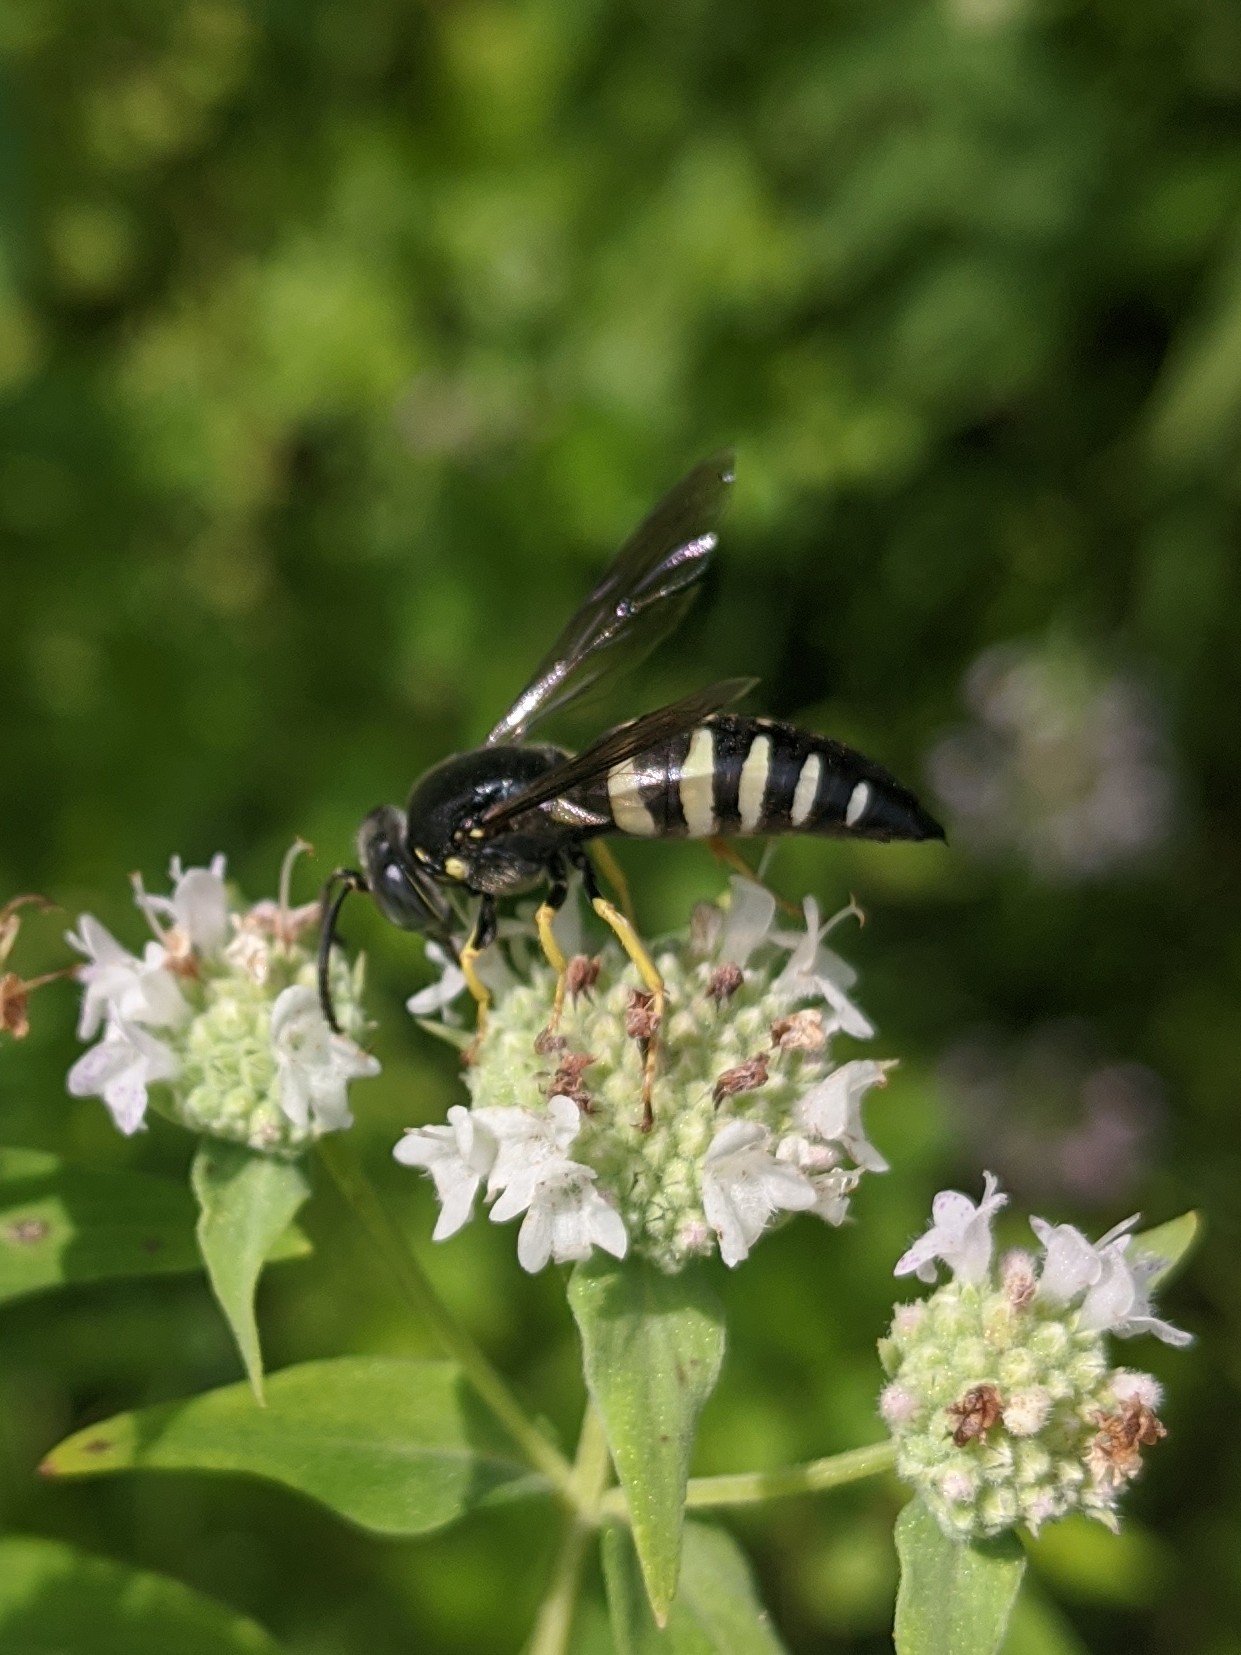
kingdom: Animalia
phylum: Arthropoda
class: Insecta
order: Hymenoptera
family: Crabronidae
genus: Bicyrtes
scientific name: Bicyrtes quadrifasciatus
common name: Four-banded stink bug hunter wasp
